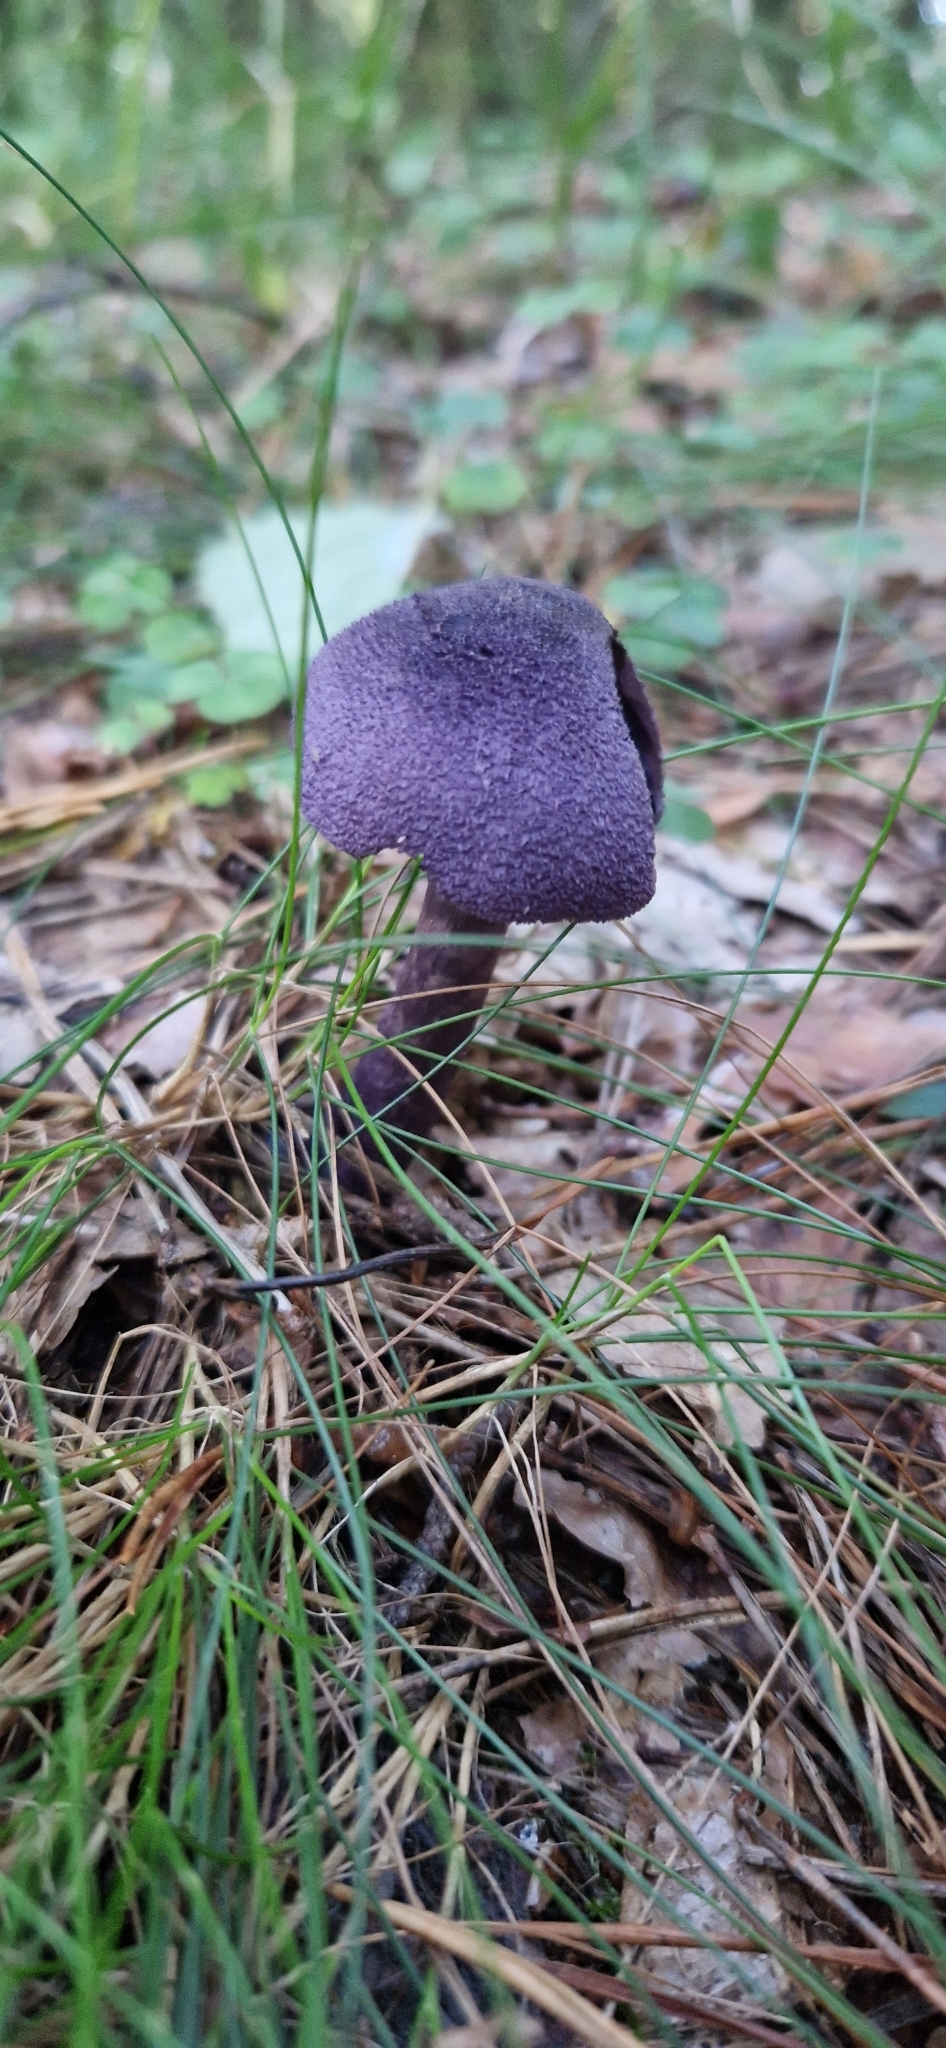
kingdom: Fungi
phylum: Basidiomycota
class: Agaricomycetes
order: Agaricales
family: Cortinariaceae
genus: Cortinarius
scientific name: Cortinarius violaceus
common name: Violet webcap
